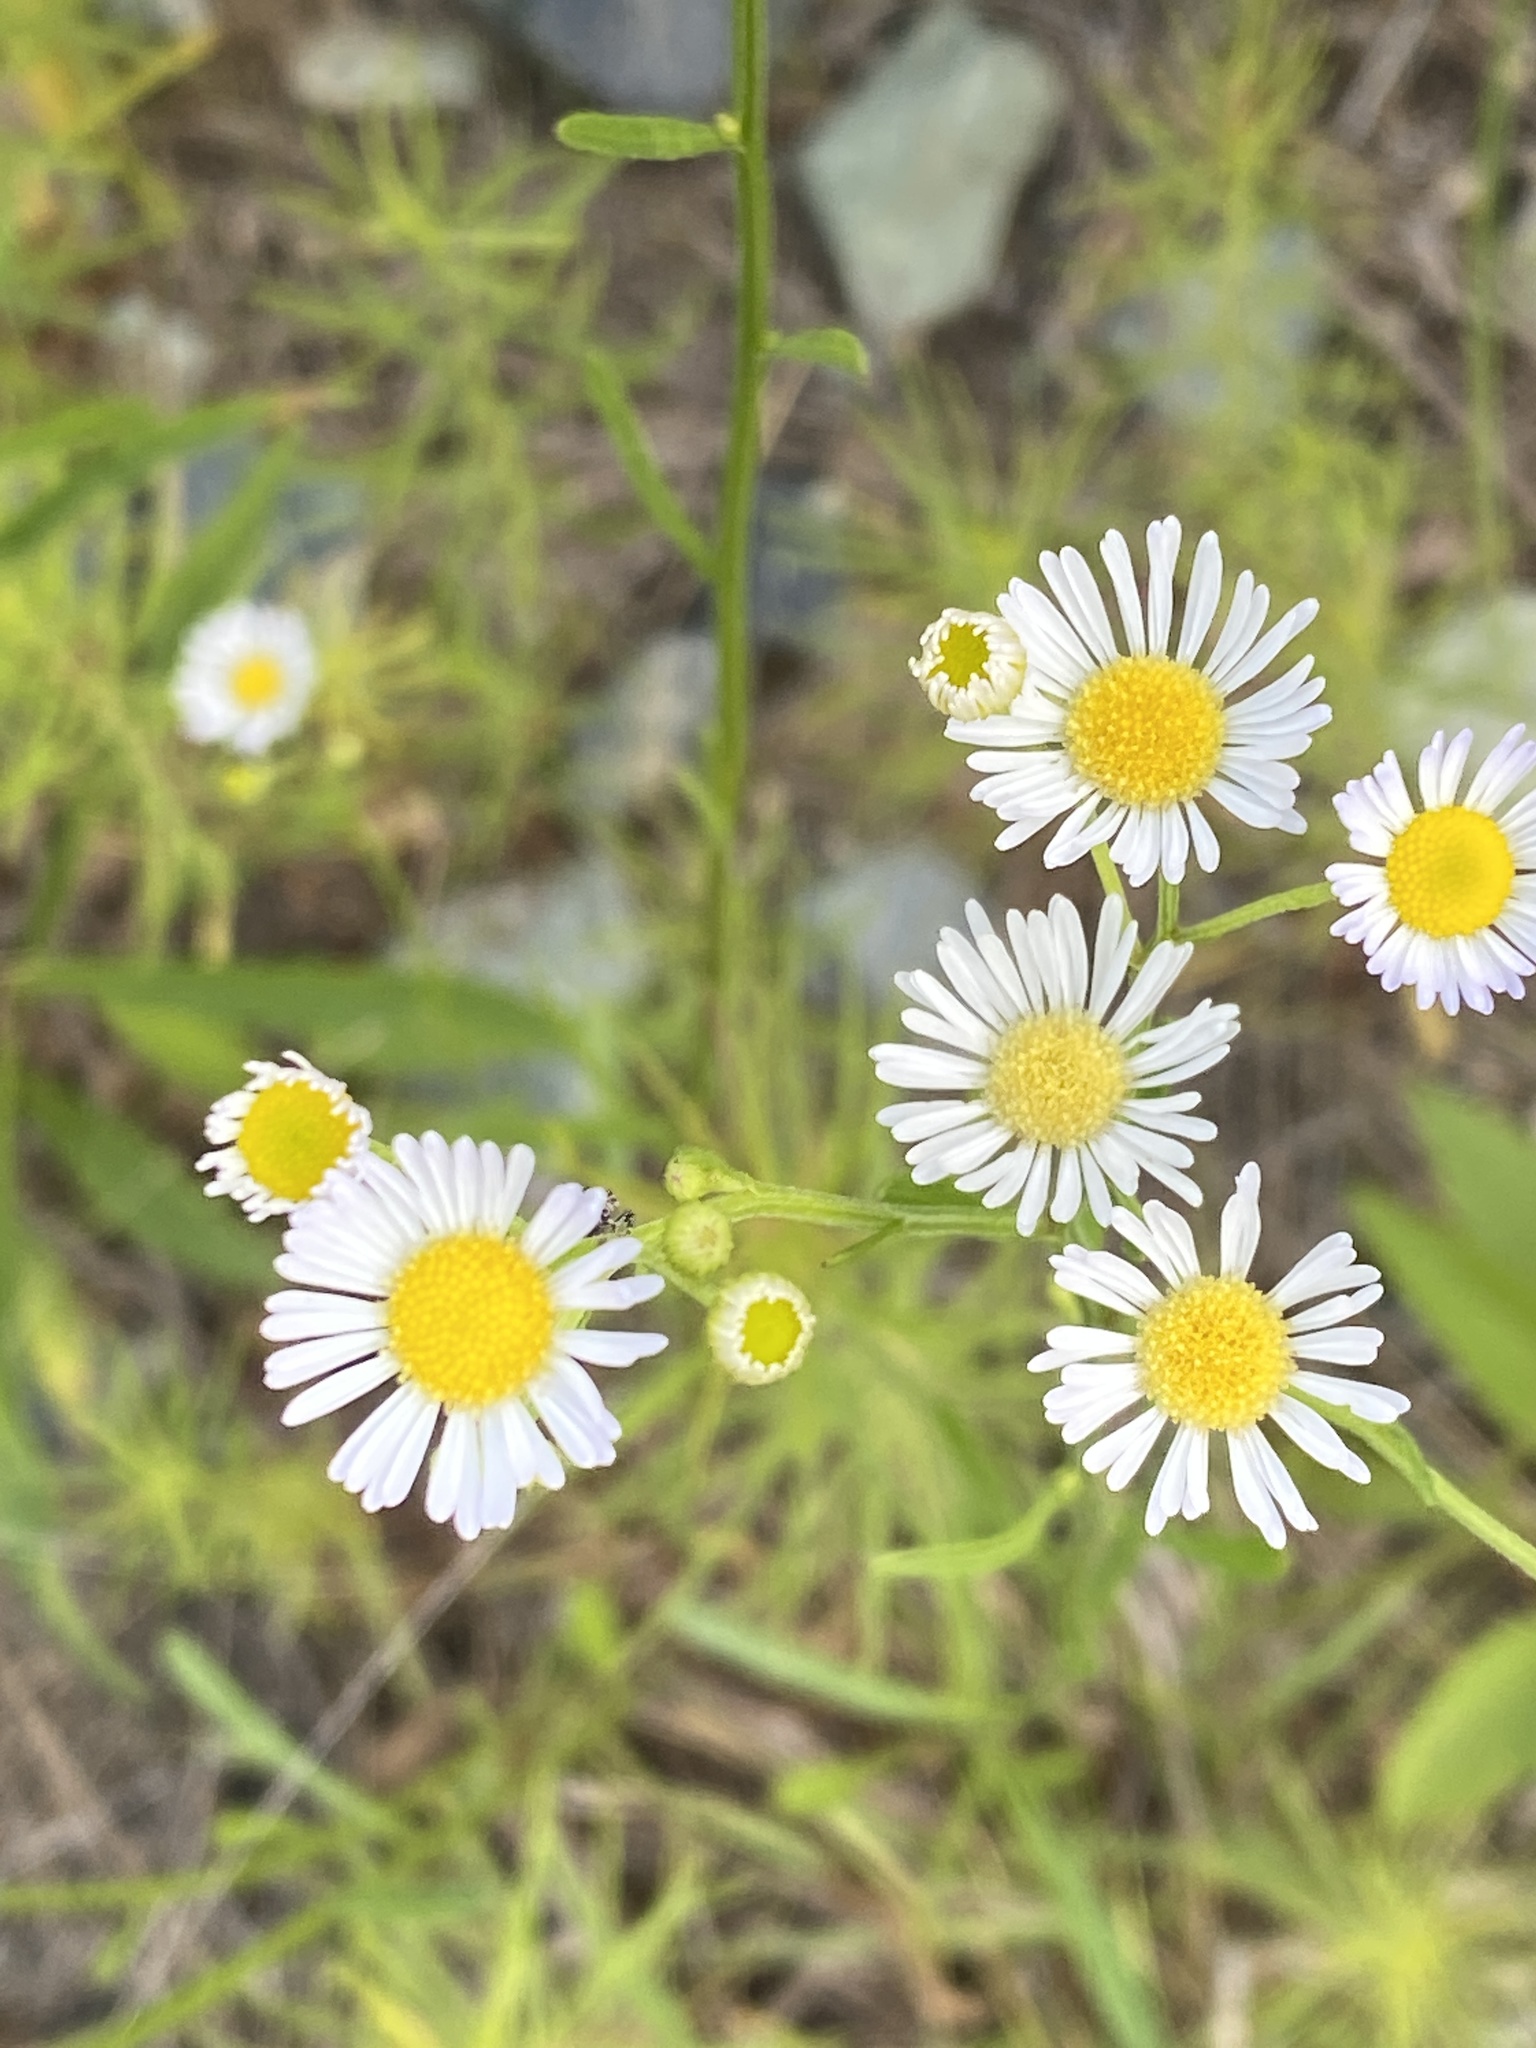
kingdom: Plantae
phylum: Tracheophyta
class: Magnoliopsida
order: Asterales
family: Asteraceae
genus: Erigeron
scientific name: Erigeron strigosus
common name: Common eastern fleabane
